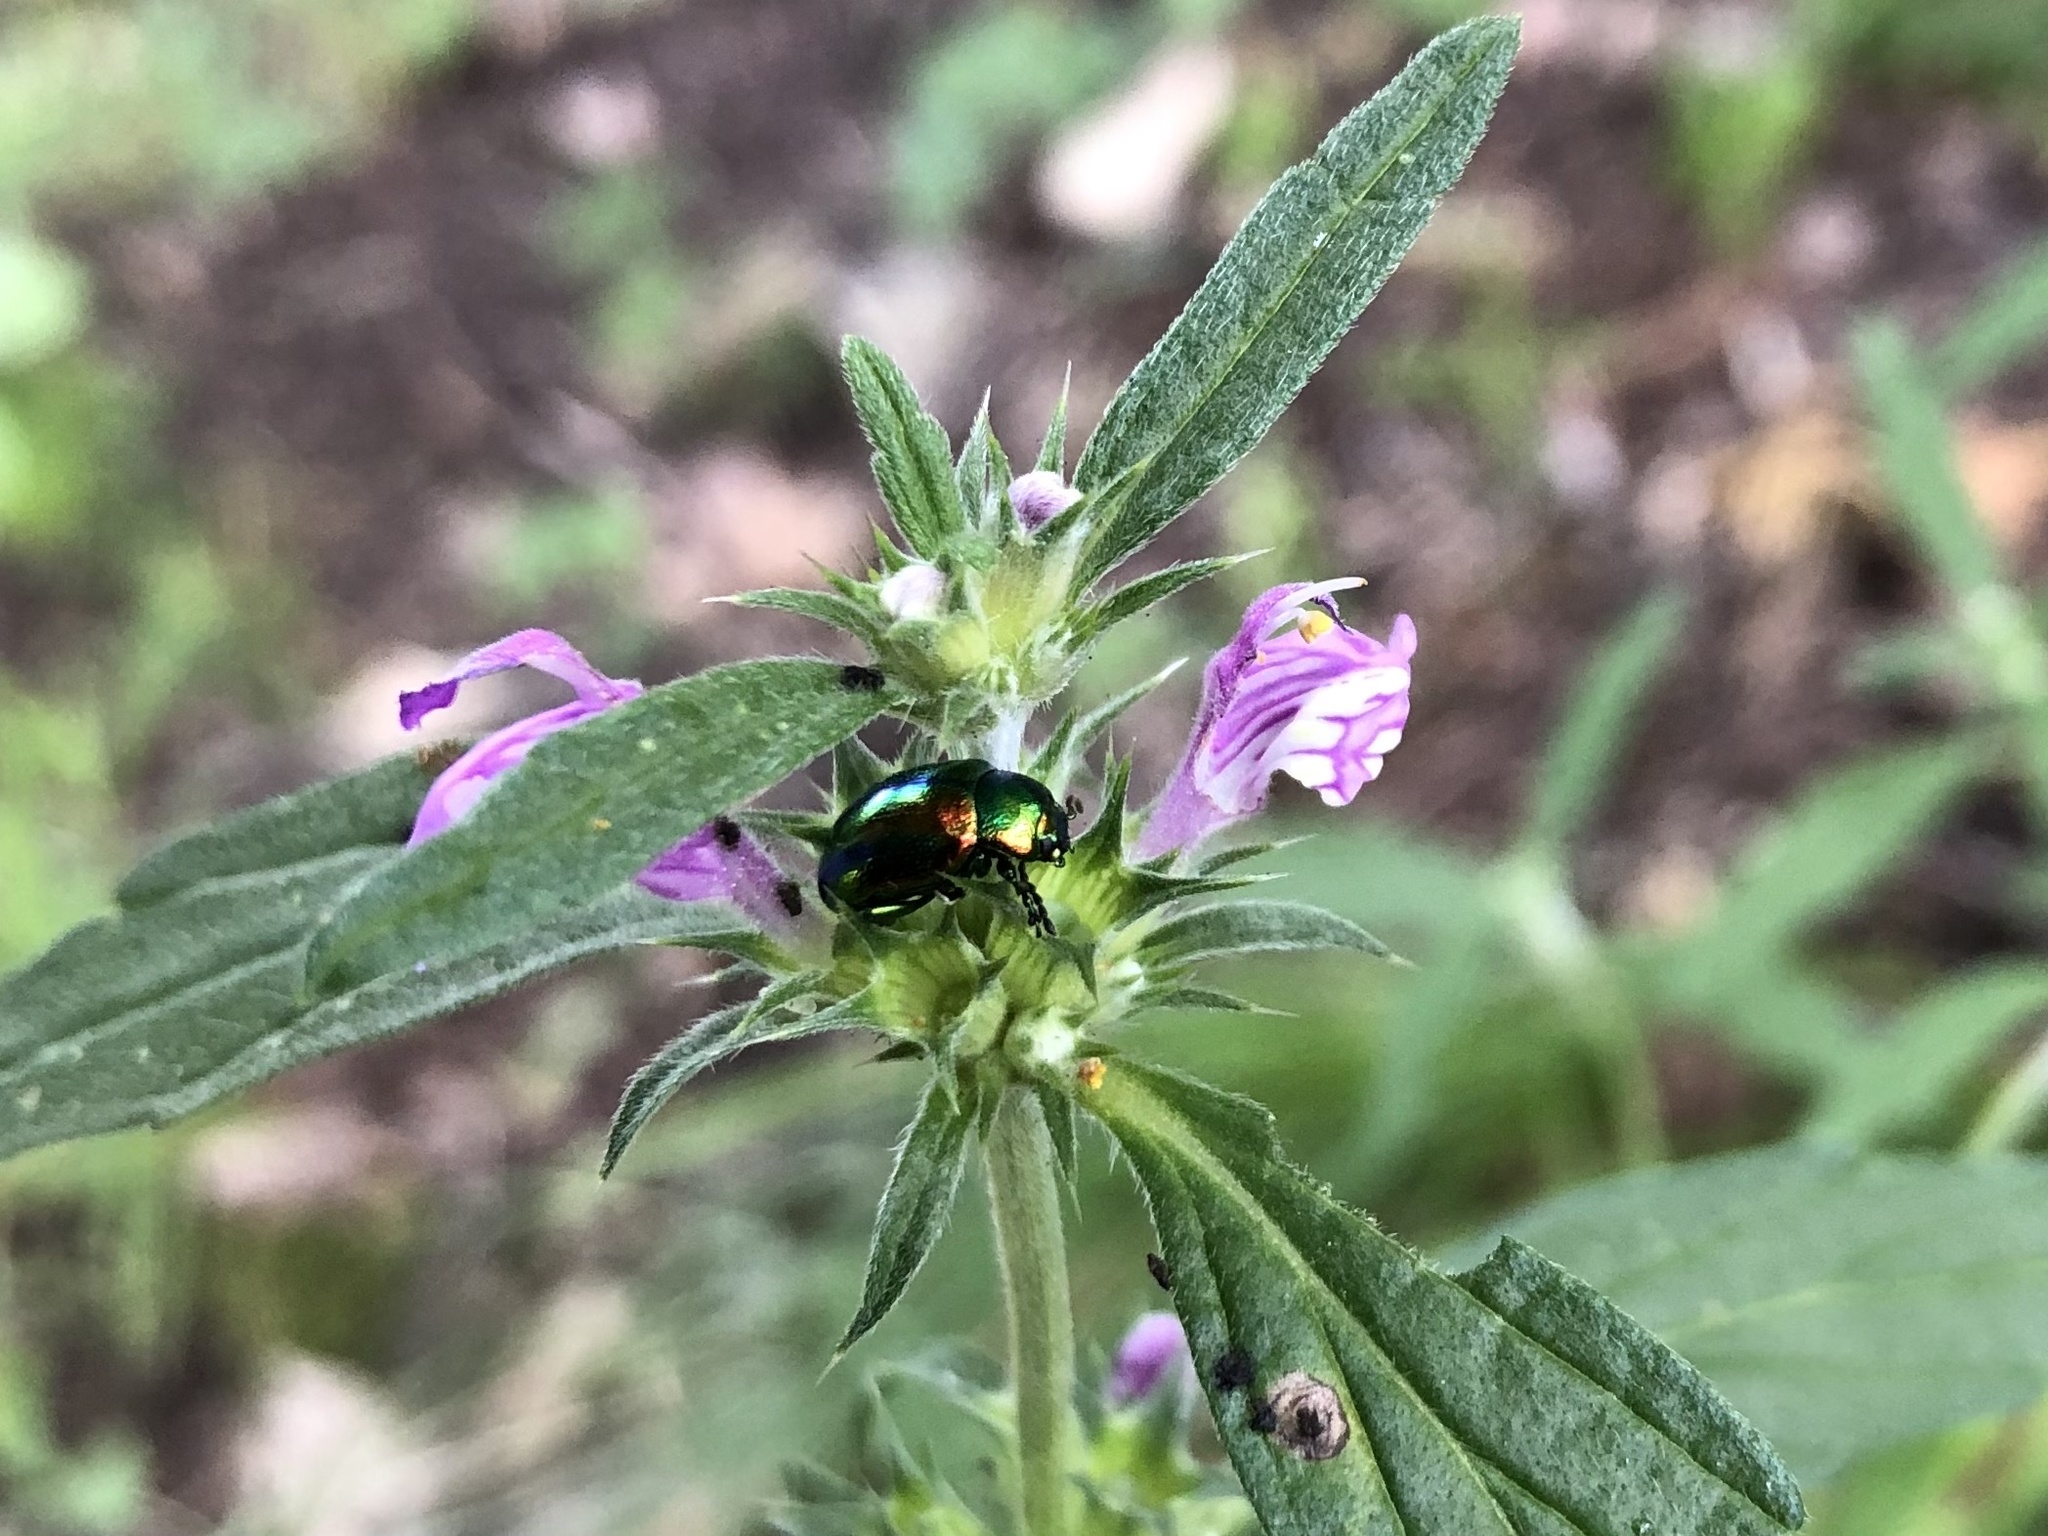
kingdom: Animalia
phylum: Arthropoda
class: Insecta
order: Coleoptera
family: Chrysomelidae
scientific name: Chrysomelidae
